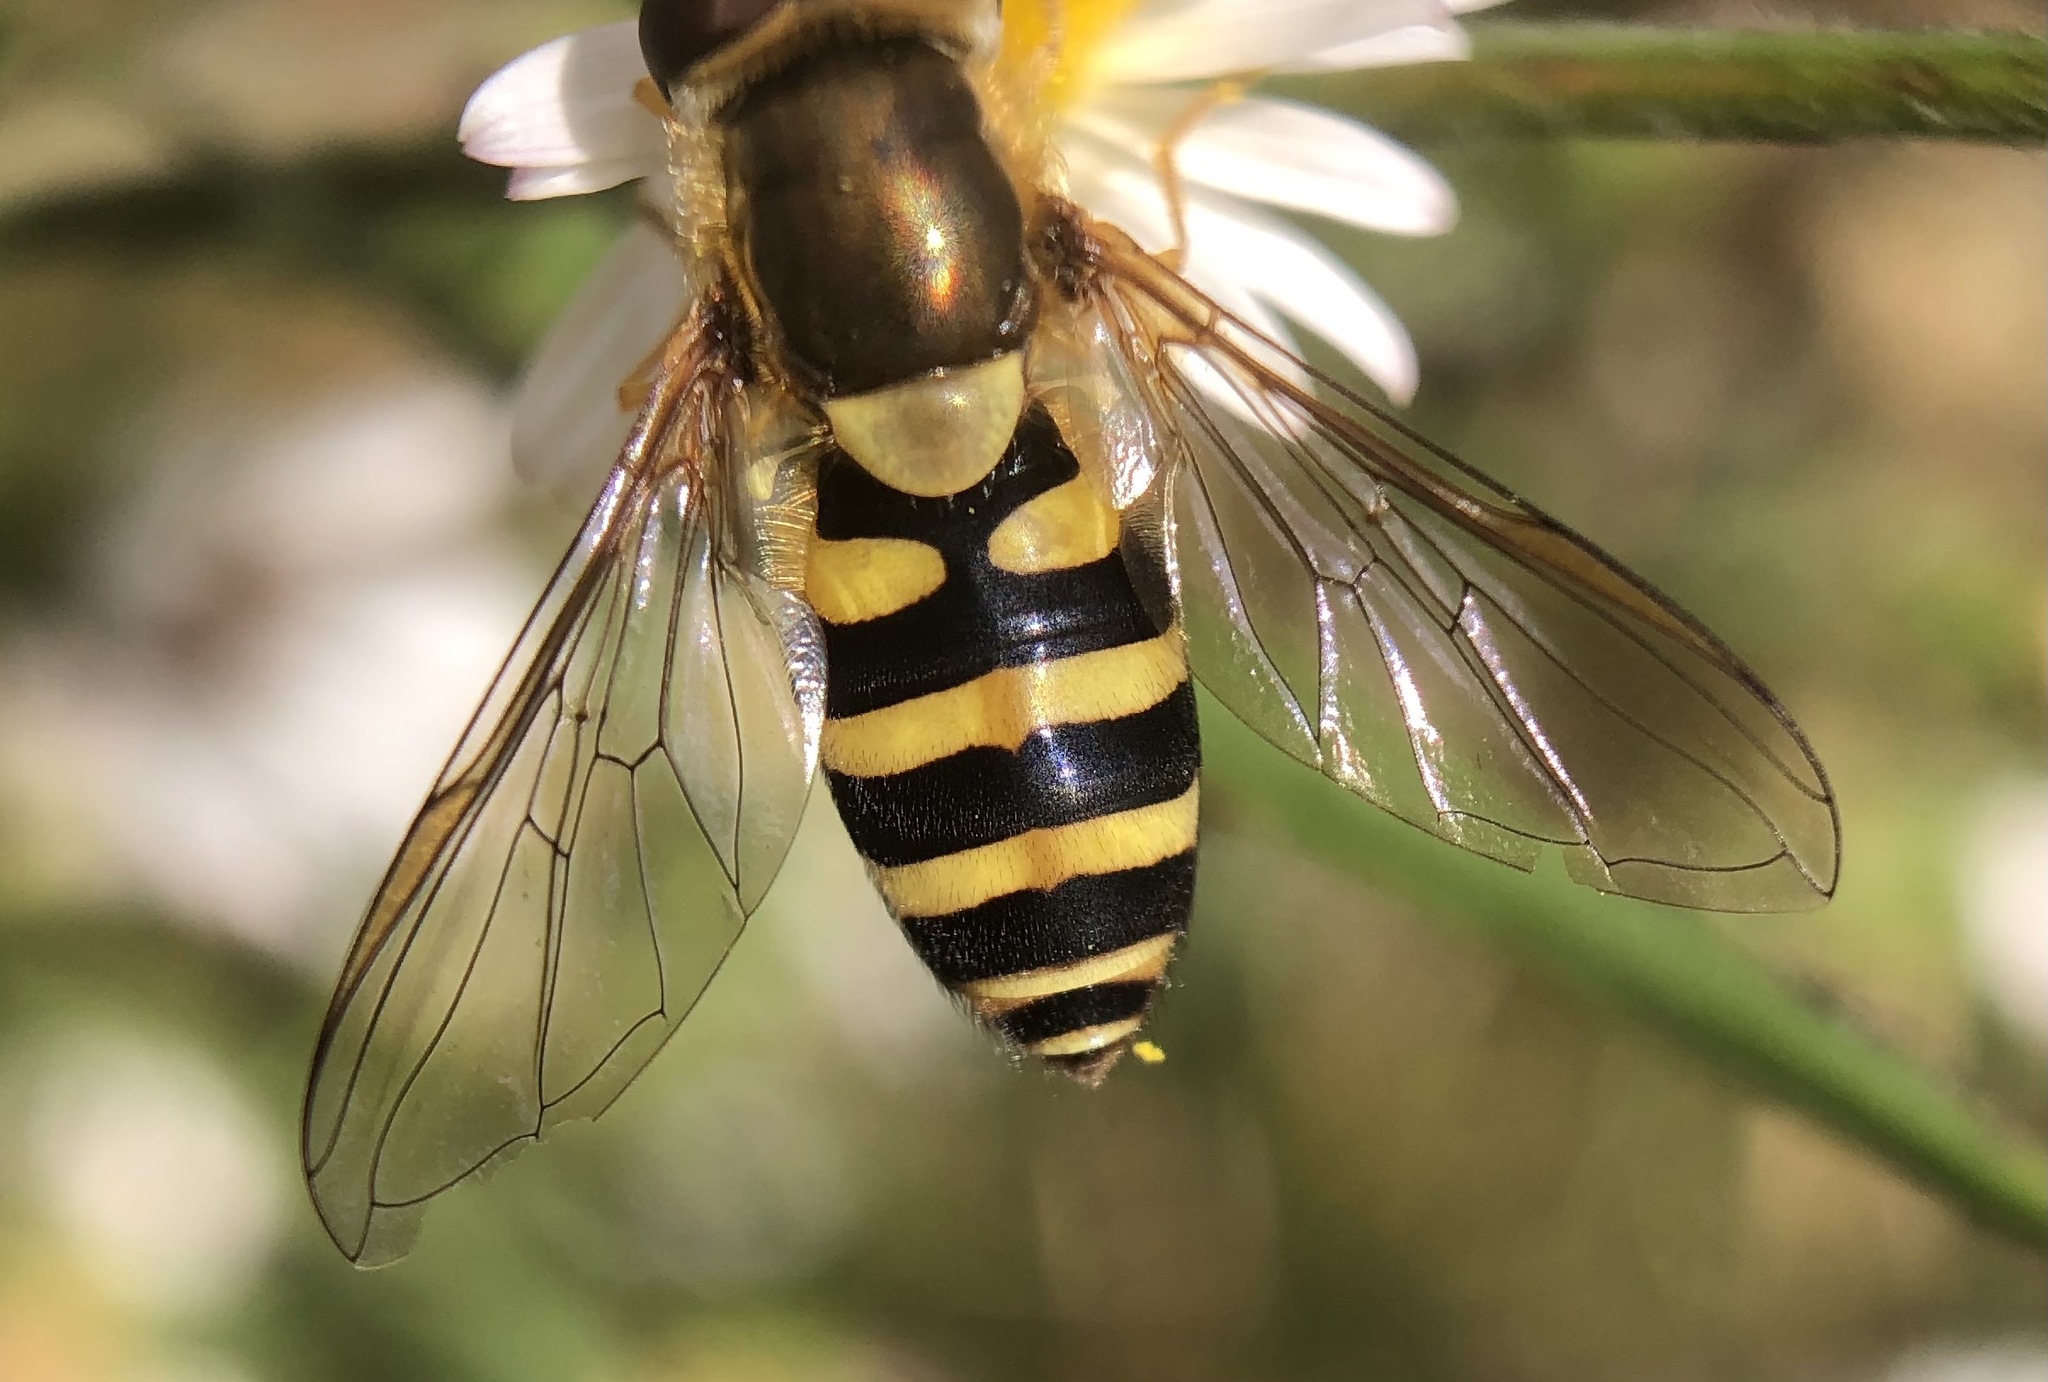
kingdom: Animalia
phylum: Arthropoda
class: Insecta
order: Diptera
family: Syrphidae
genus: Syrphus
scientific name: Syrphus rectus
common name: Yellow-legged flower fly
